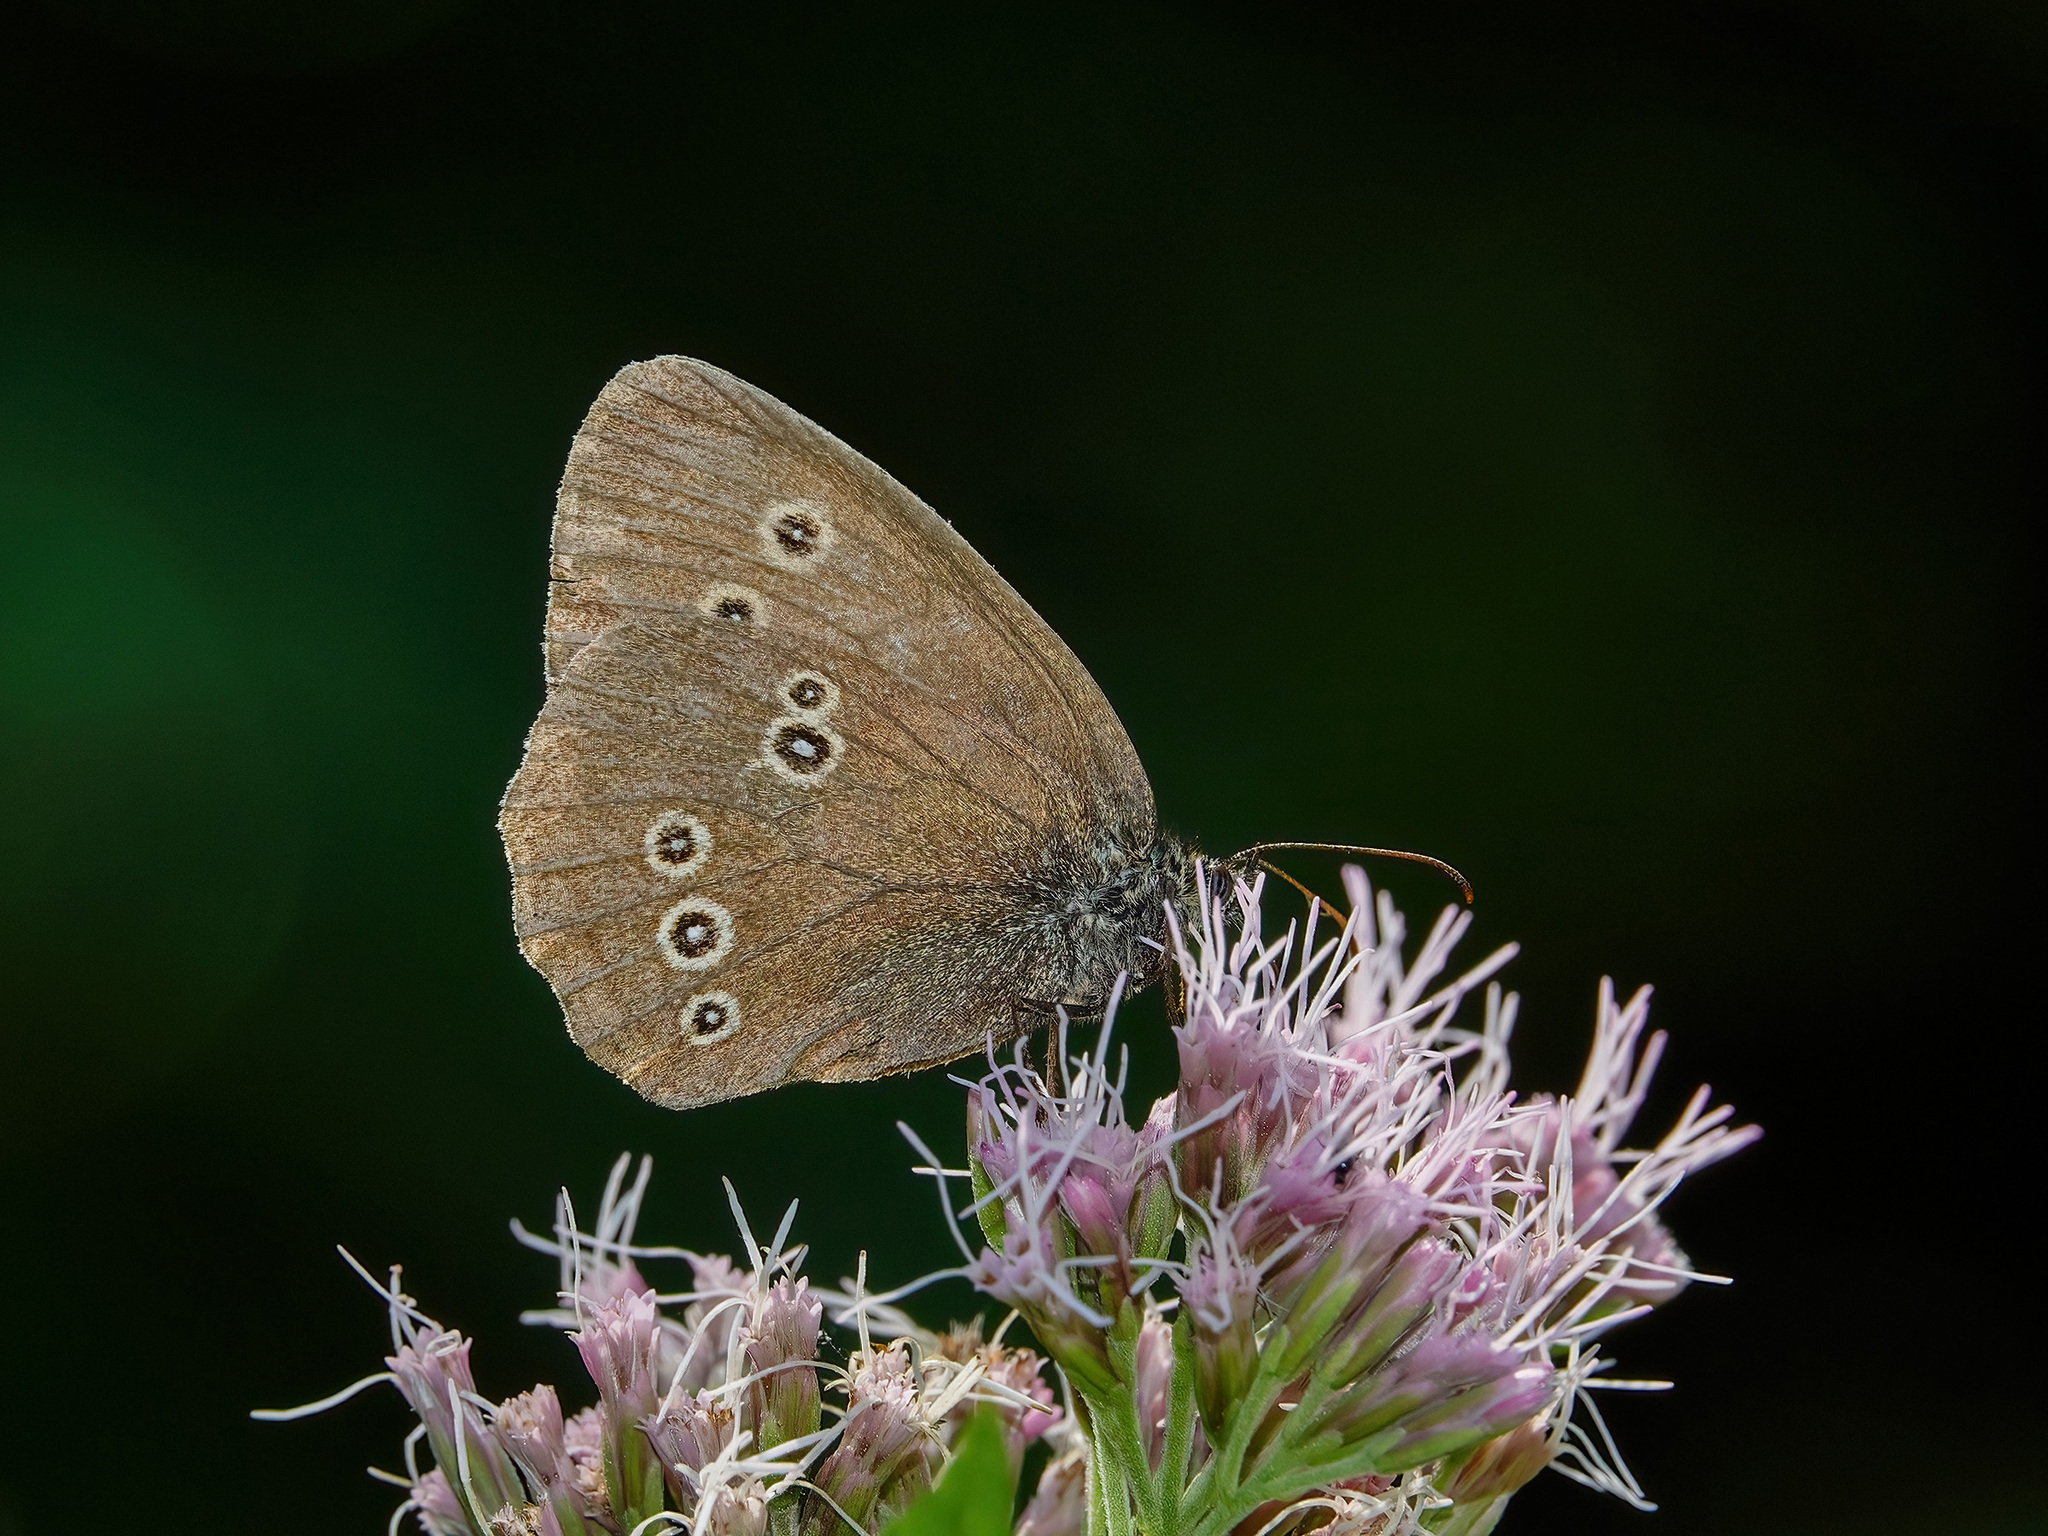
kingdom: Animalia
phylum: Arthropoda
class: Insecta
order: Lepidoptera
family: Nymphalidae
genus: Aphantopus
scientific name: Aphantopus hyperantus
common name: Ringlet
